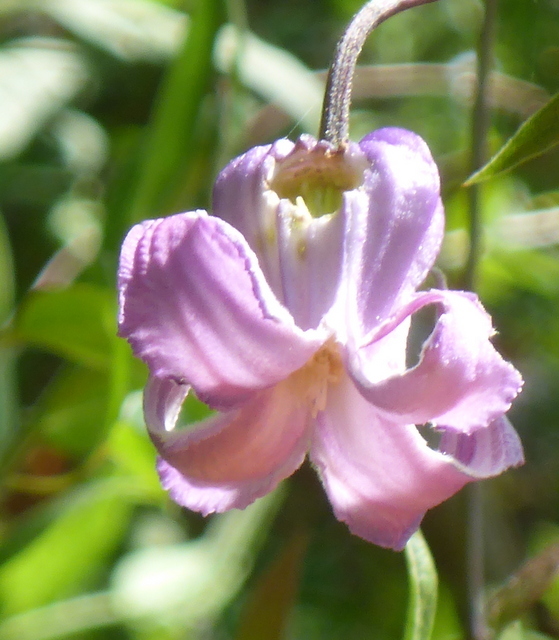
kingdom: Plantae
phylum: Tracheophyta
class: Magnoliopsida
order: Ranunculales
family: Ranunculaceae
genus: Clematis
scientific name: Clematis crispa
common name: Curly clematis
